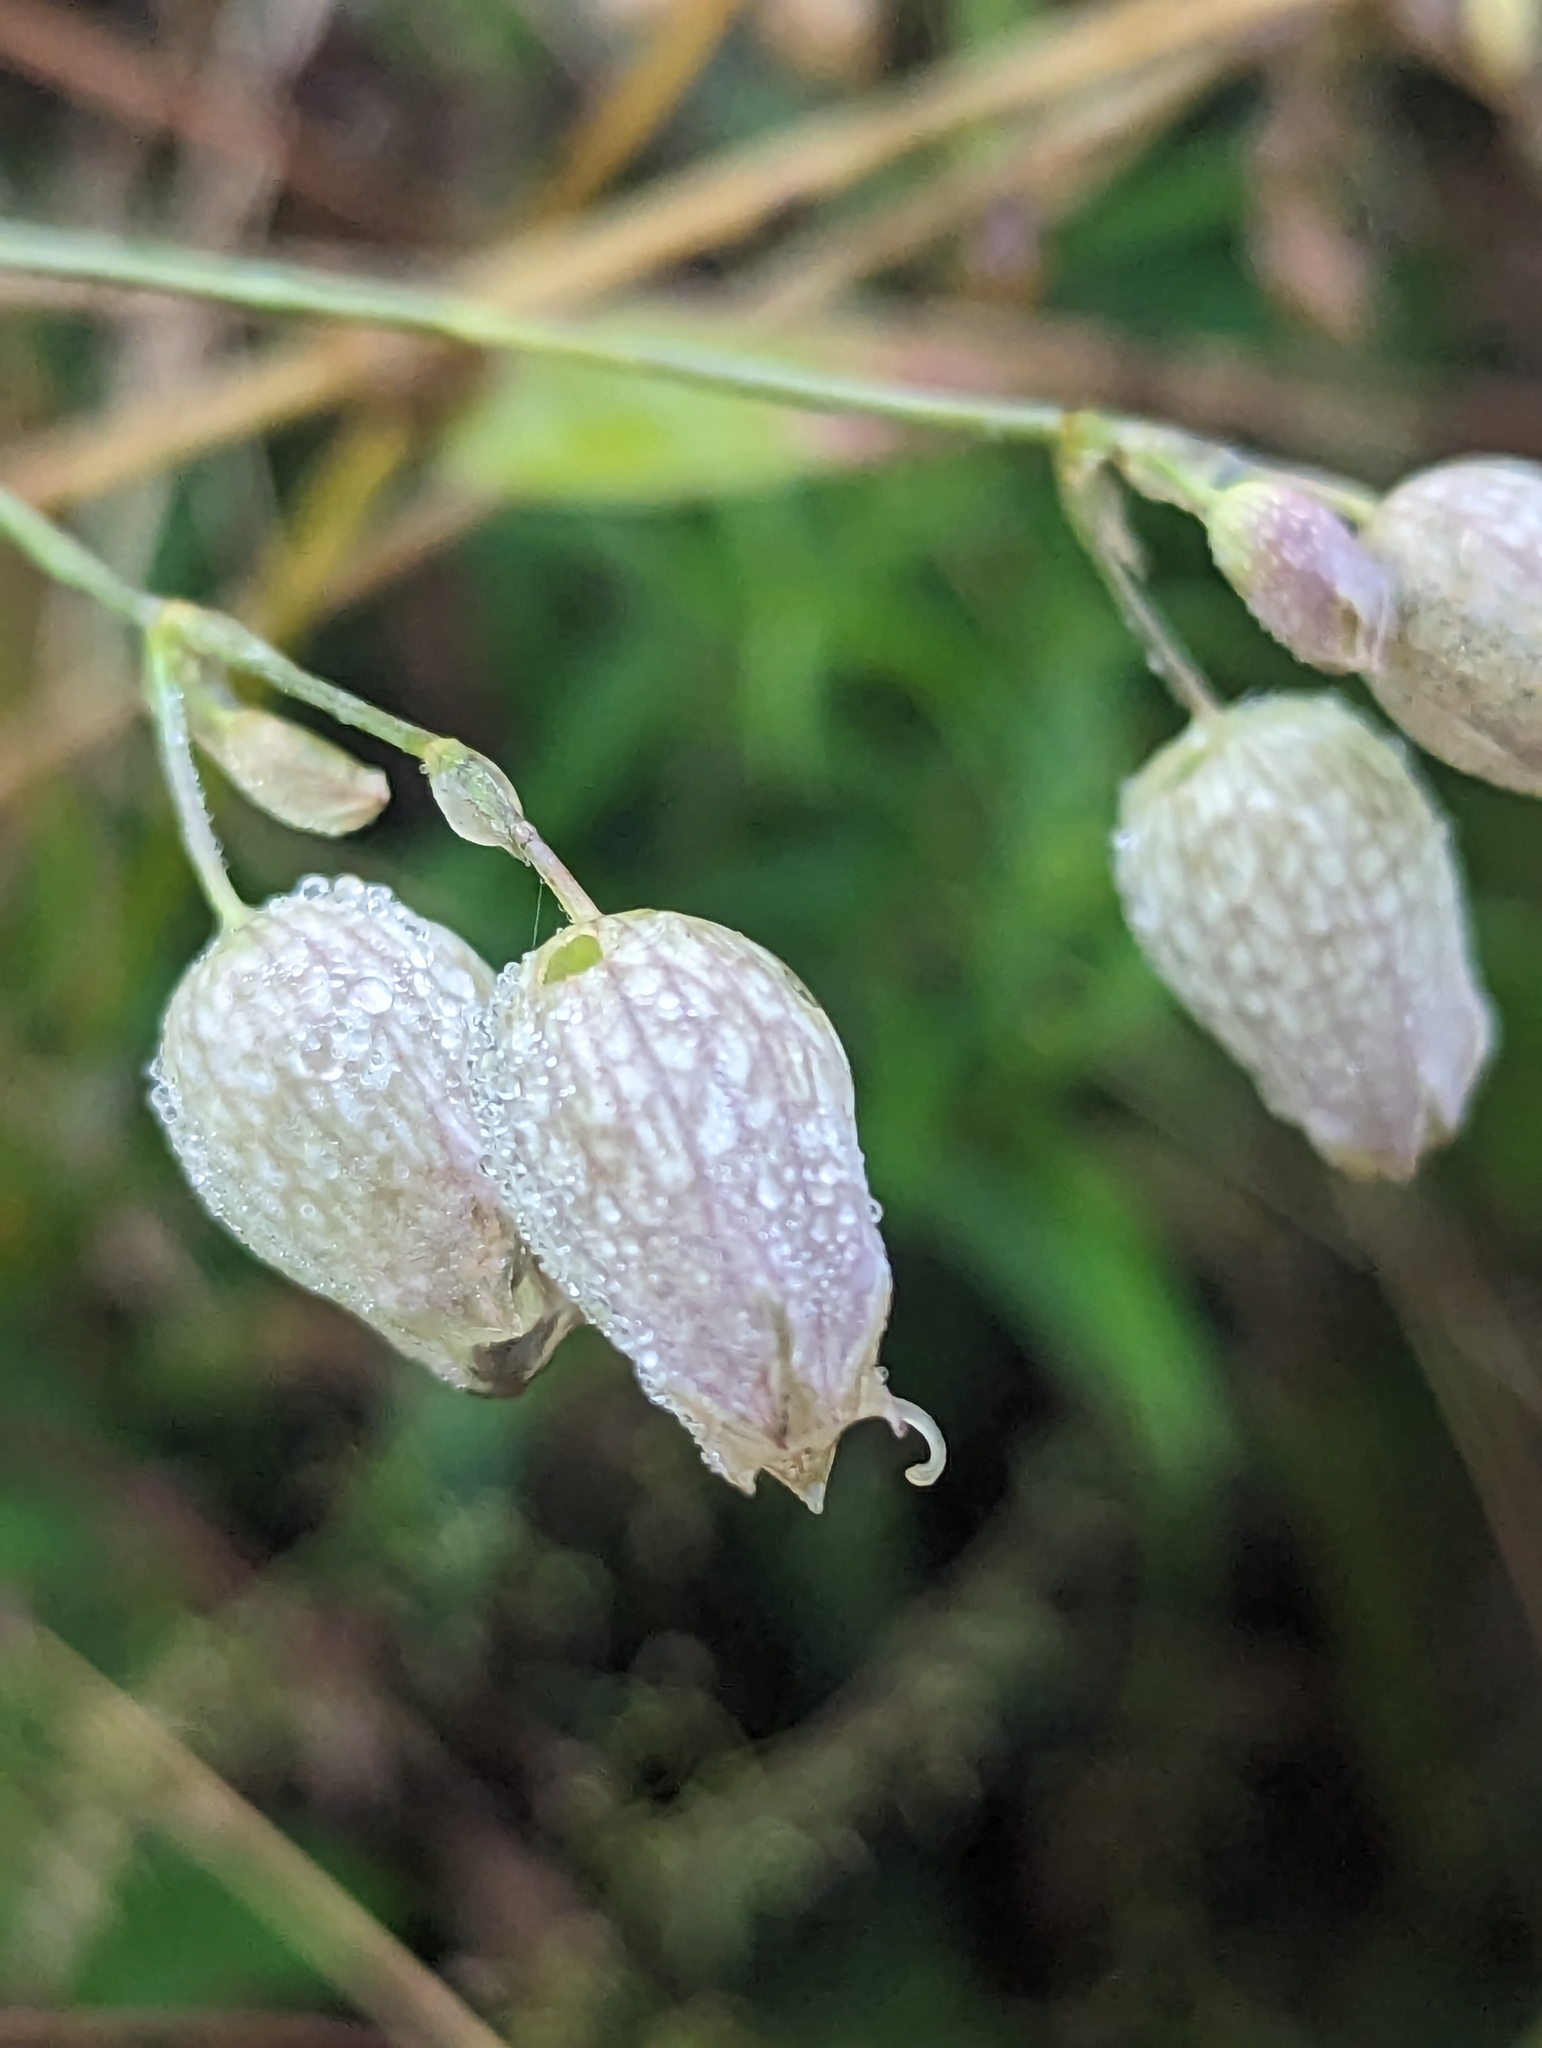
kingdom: Plantae
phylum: Tracheophyta
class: Magnoliopsida
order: Caryophyllales
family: Caryophyllaceae
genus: Silene
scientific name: Silene vulgaris
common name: Bladder campion
